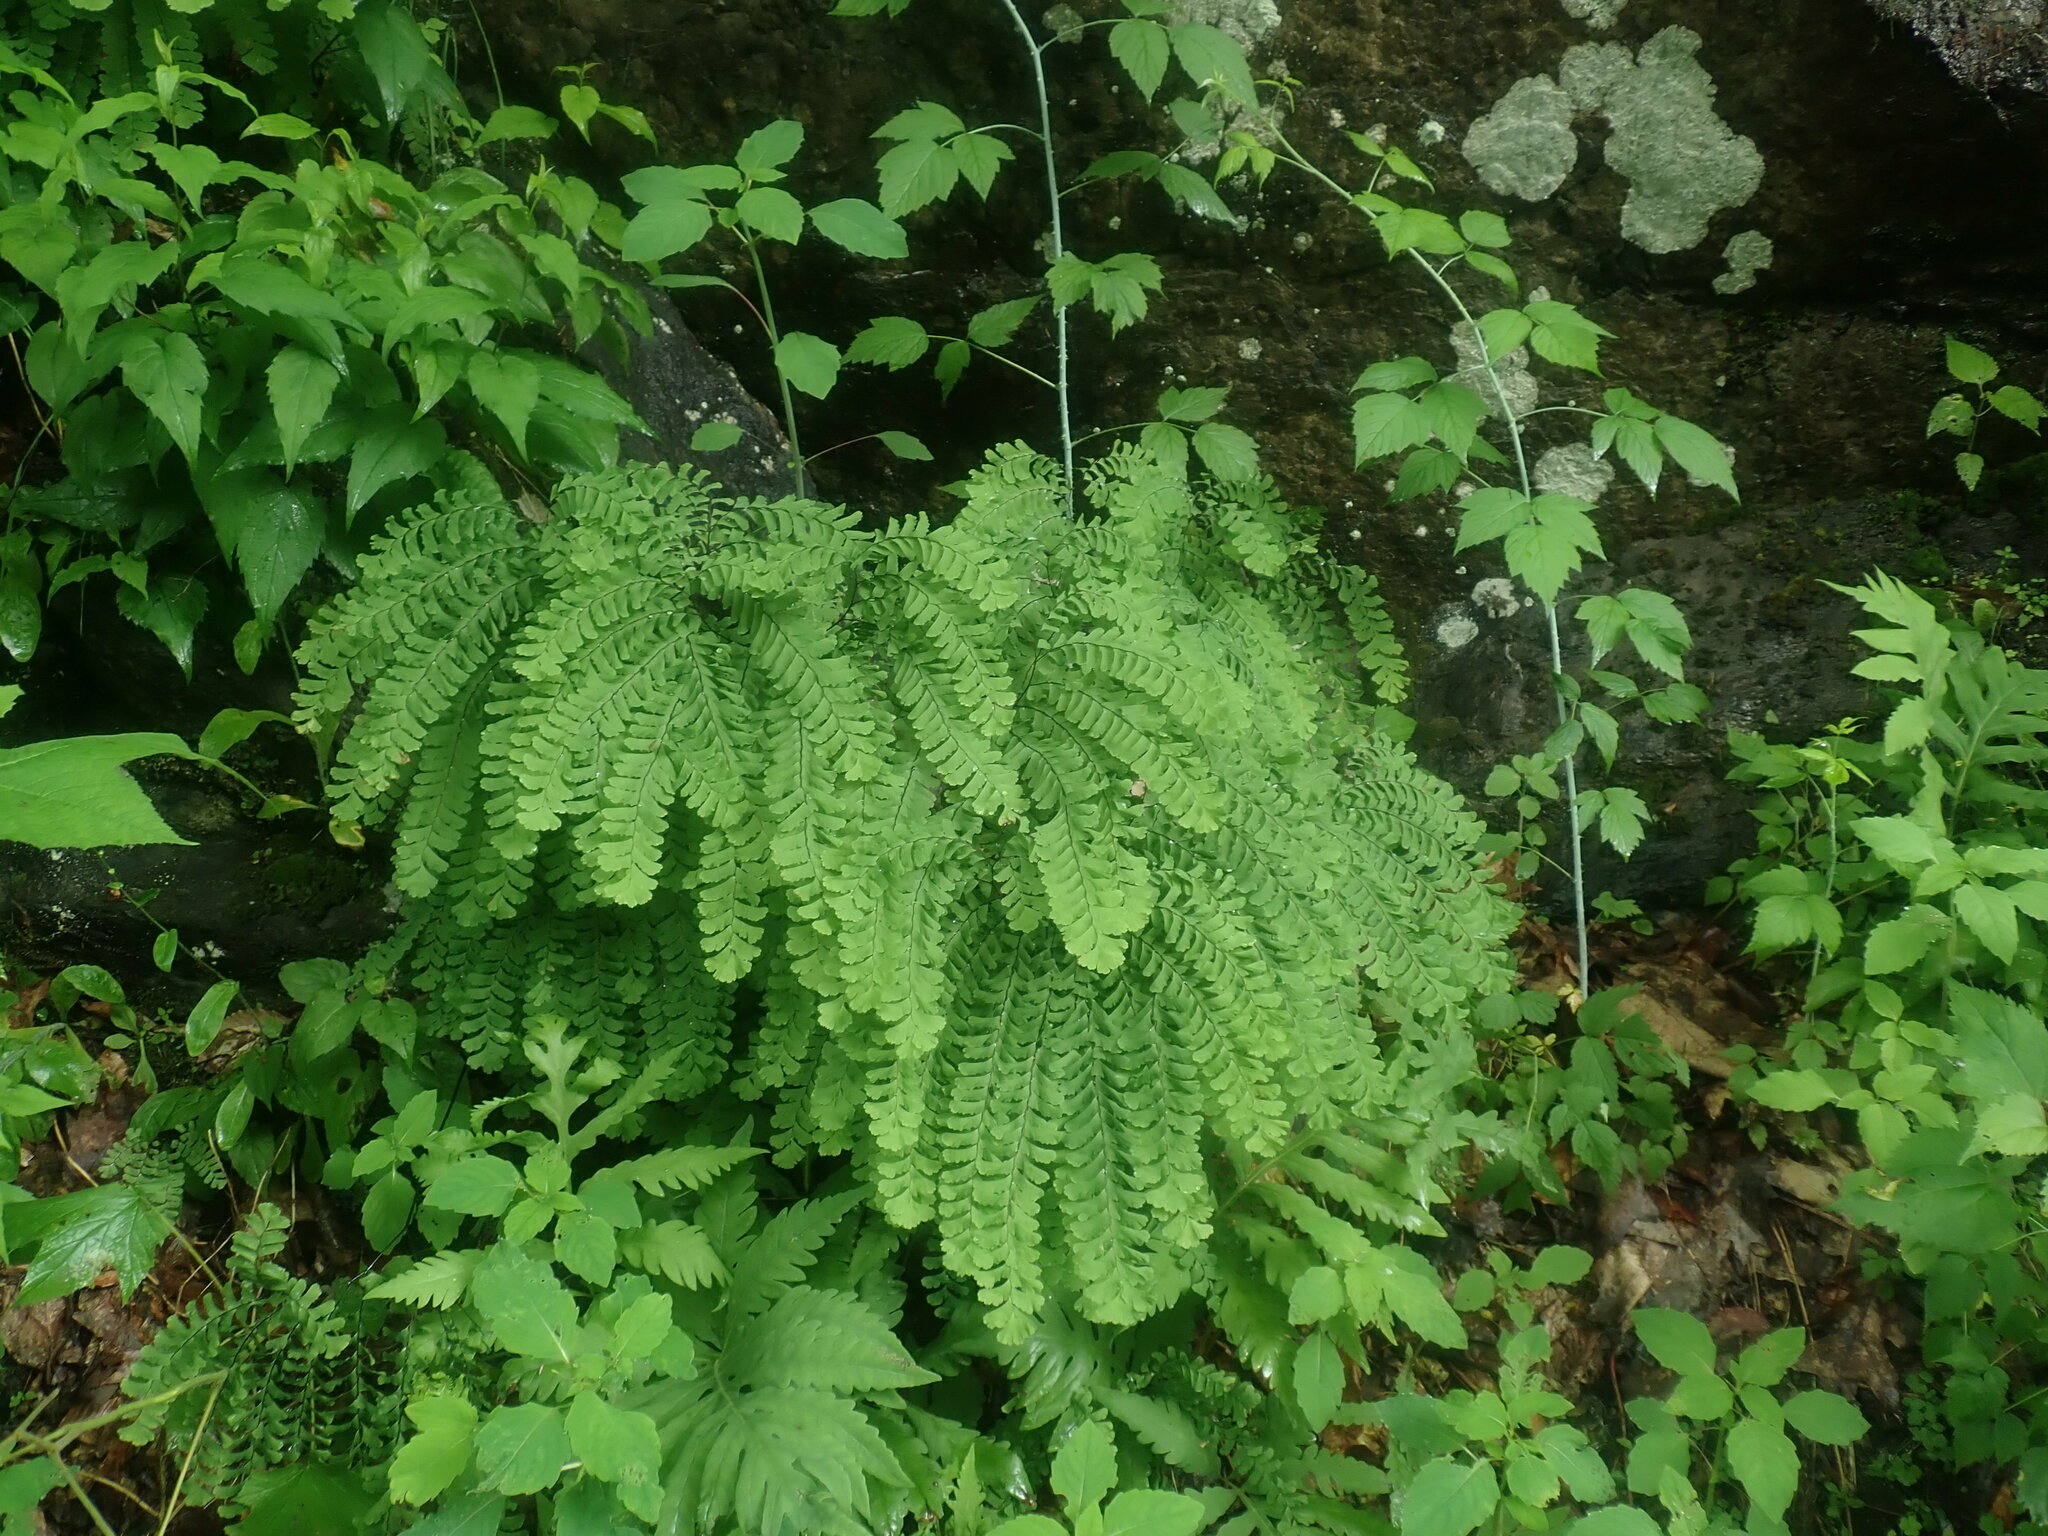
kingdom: Plantae
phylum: Tracheophyta
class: Polypodiopsida
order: Polypodiales
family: Pteridaceae
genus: Adiantum
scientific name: Adiantum pedatum
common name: Five-finger fern
